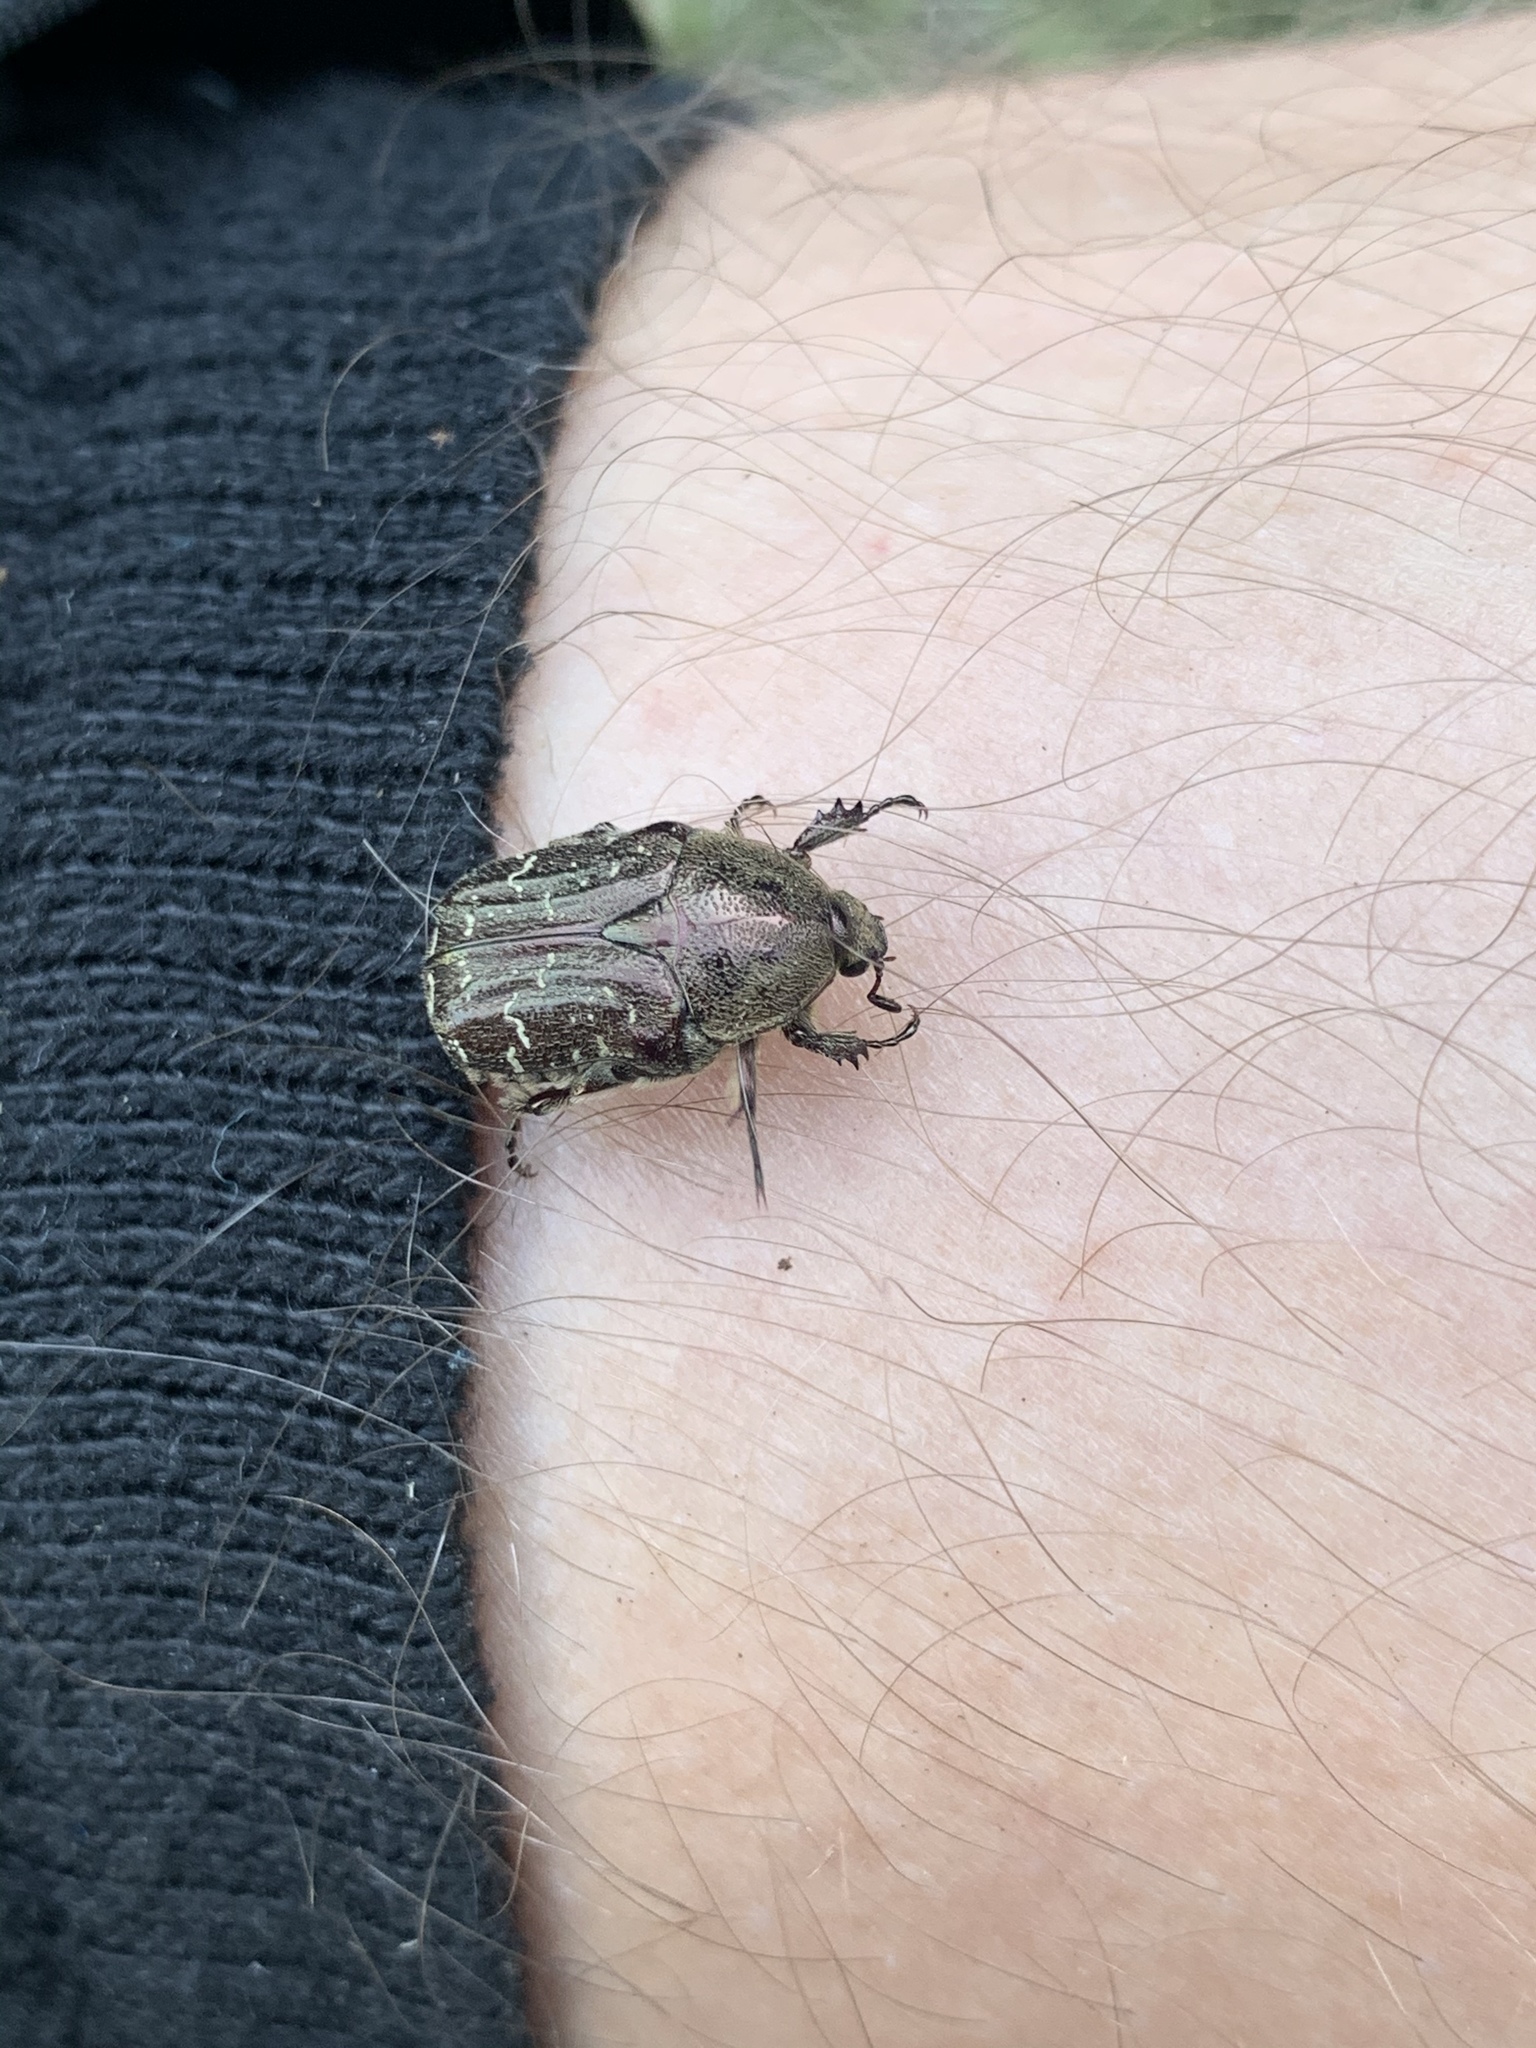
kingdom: Animalia
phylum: Arthropoda
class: Insecta
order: Coleoptera
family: Scarabaeidae
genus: Euphoria
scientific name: Euphoria sepulcralis
